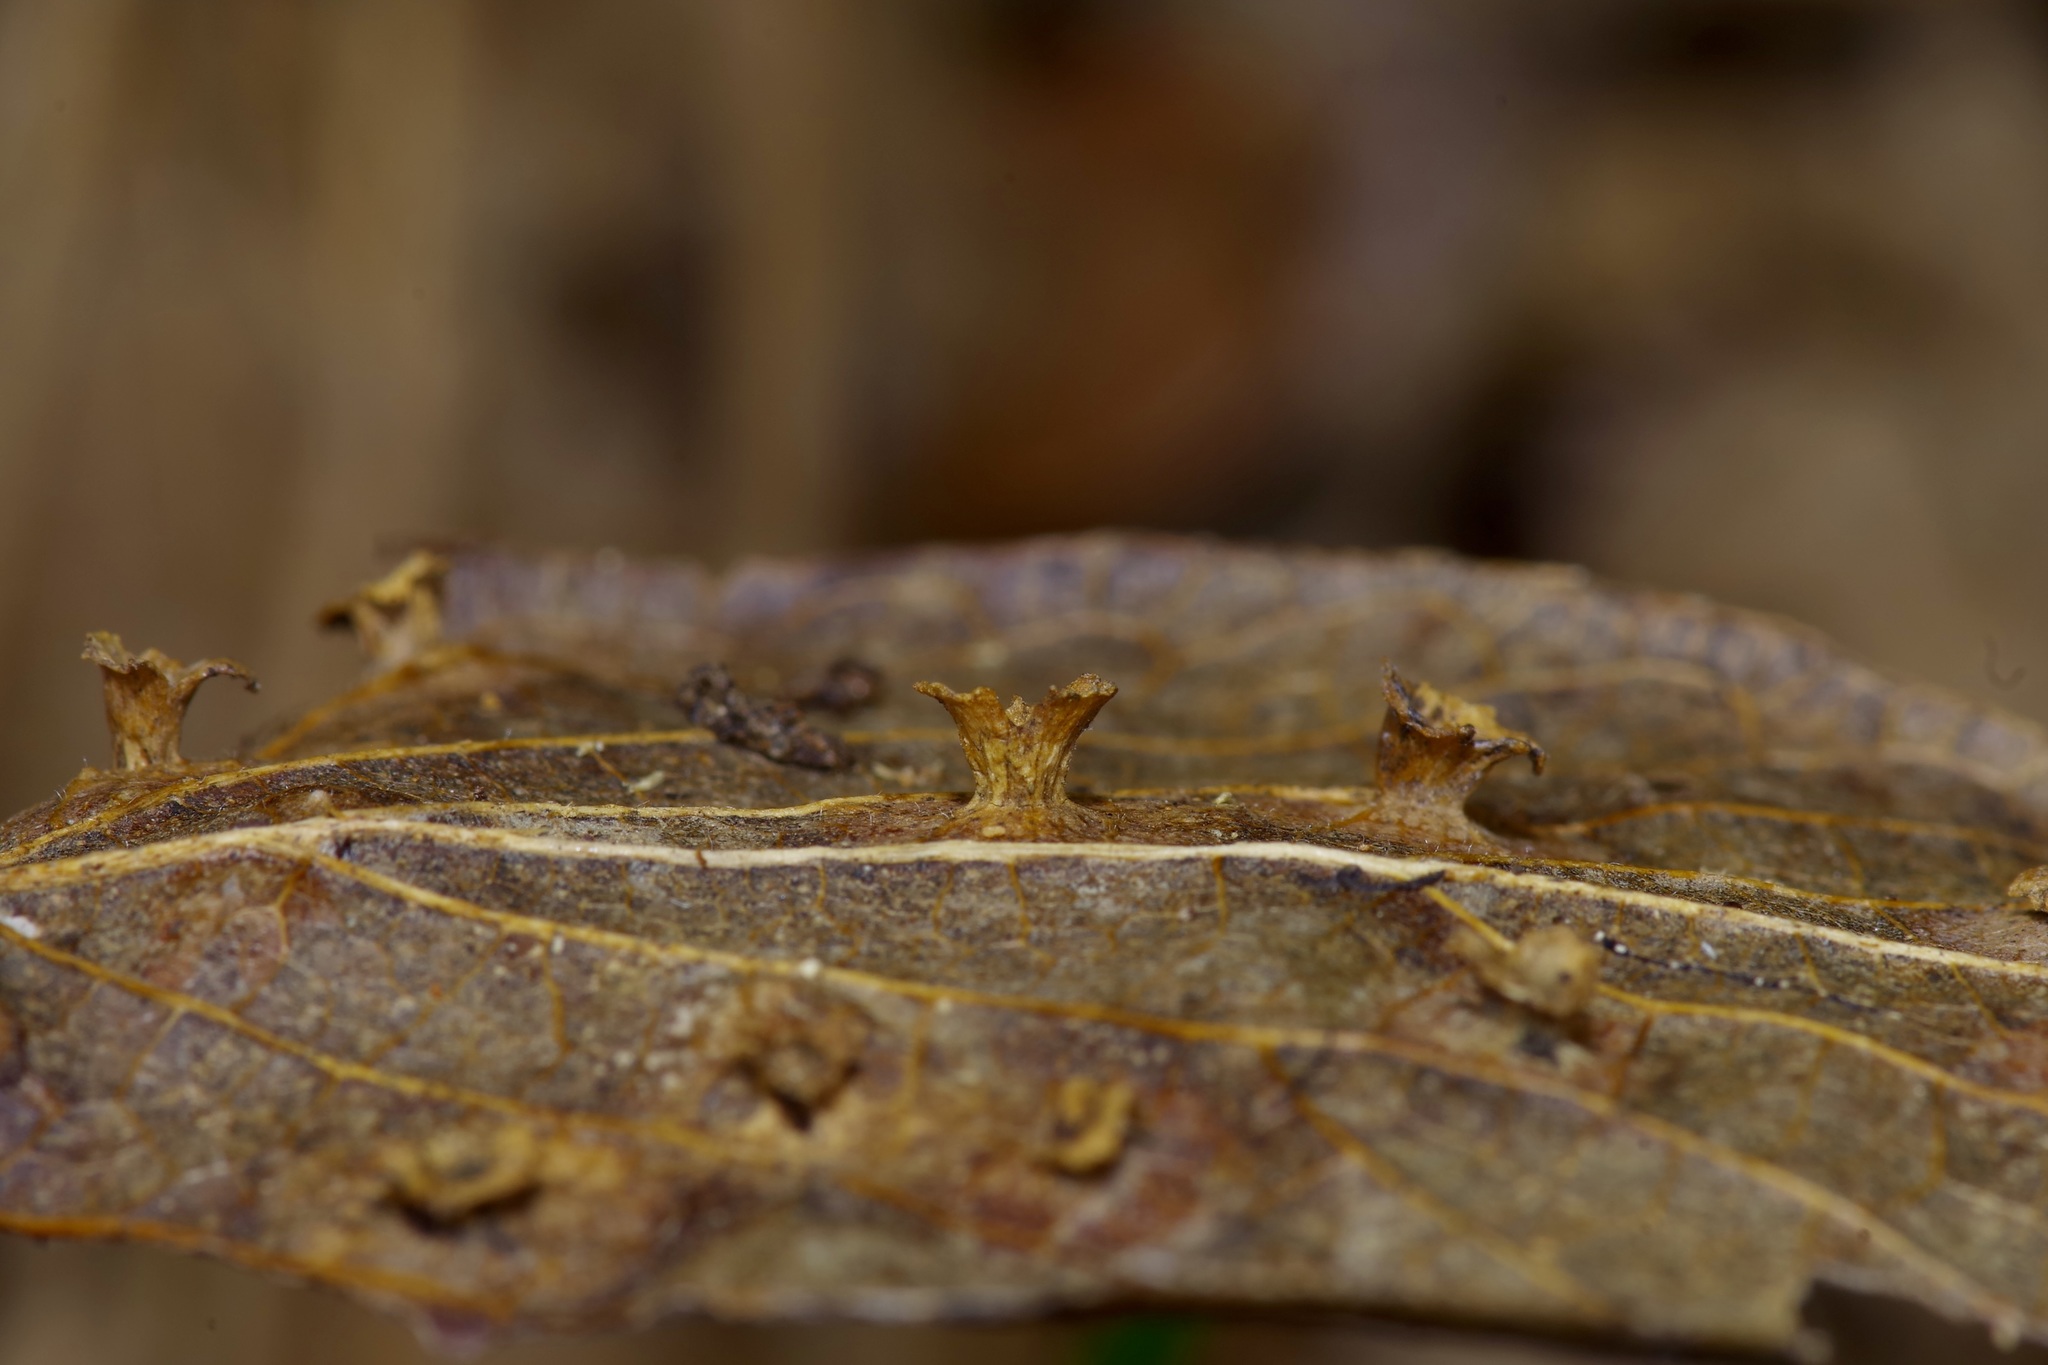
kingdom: Animalia
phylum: Arthropoda
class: Insecta
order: Hemiptera
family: Aphalaridae
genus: Pachypsylla
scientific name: Pachypsylla celtidisasterisca
